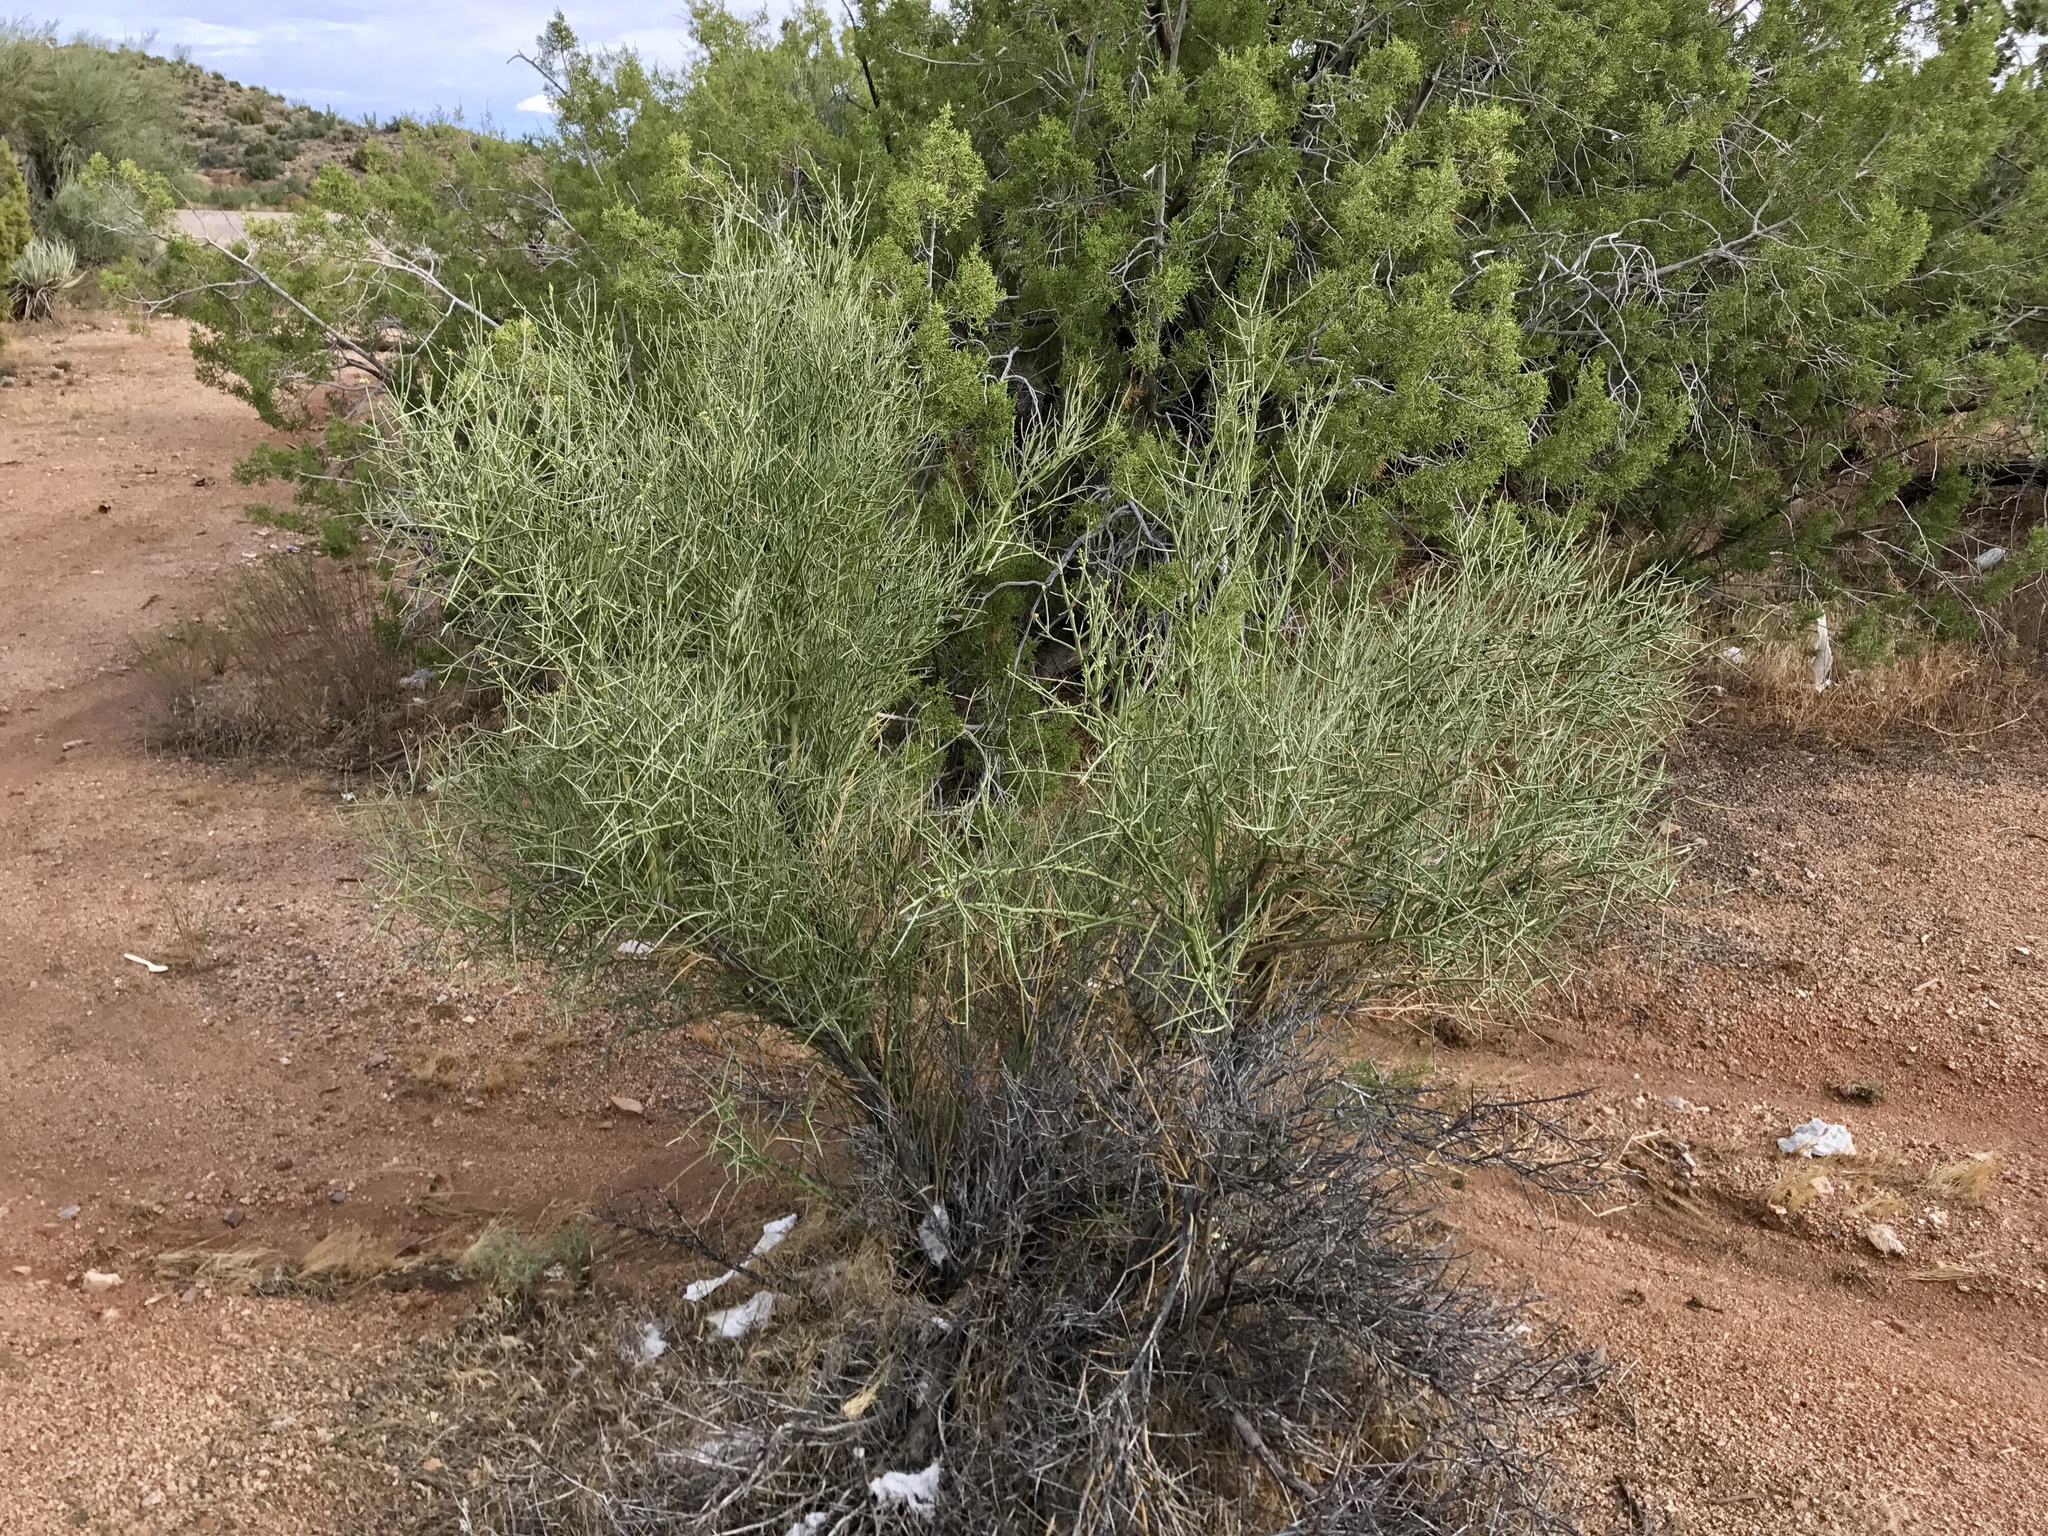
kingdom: Plantae
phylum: Tracheophyta
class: Magnoliopsida
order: Celastrales
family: Celastraceae
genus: Canotia
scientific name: Canotia holacantha
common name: Crucifixion thorns
